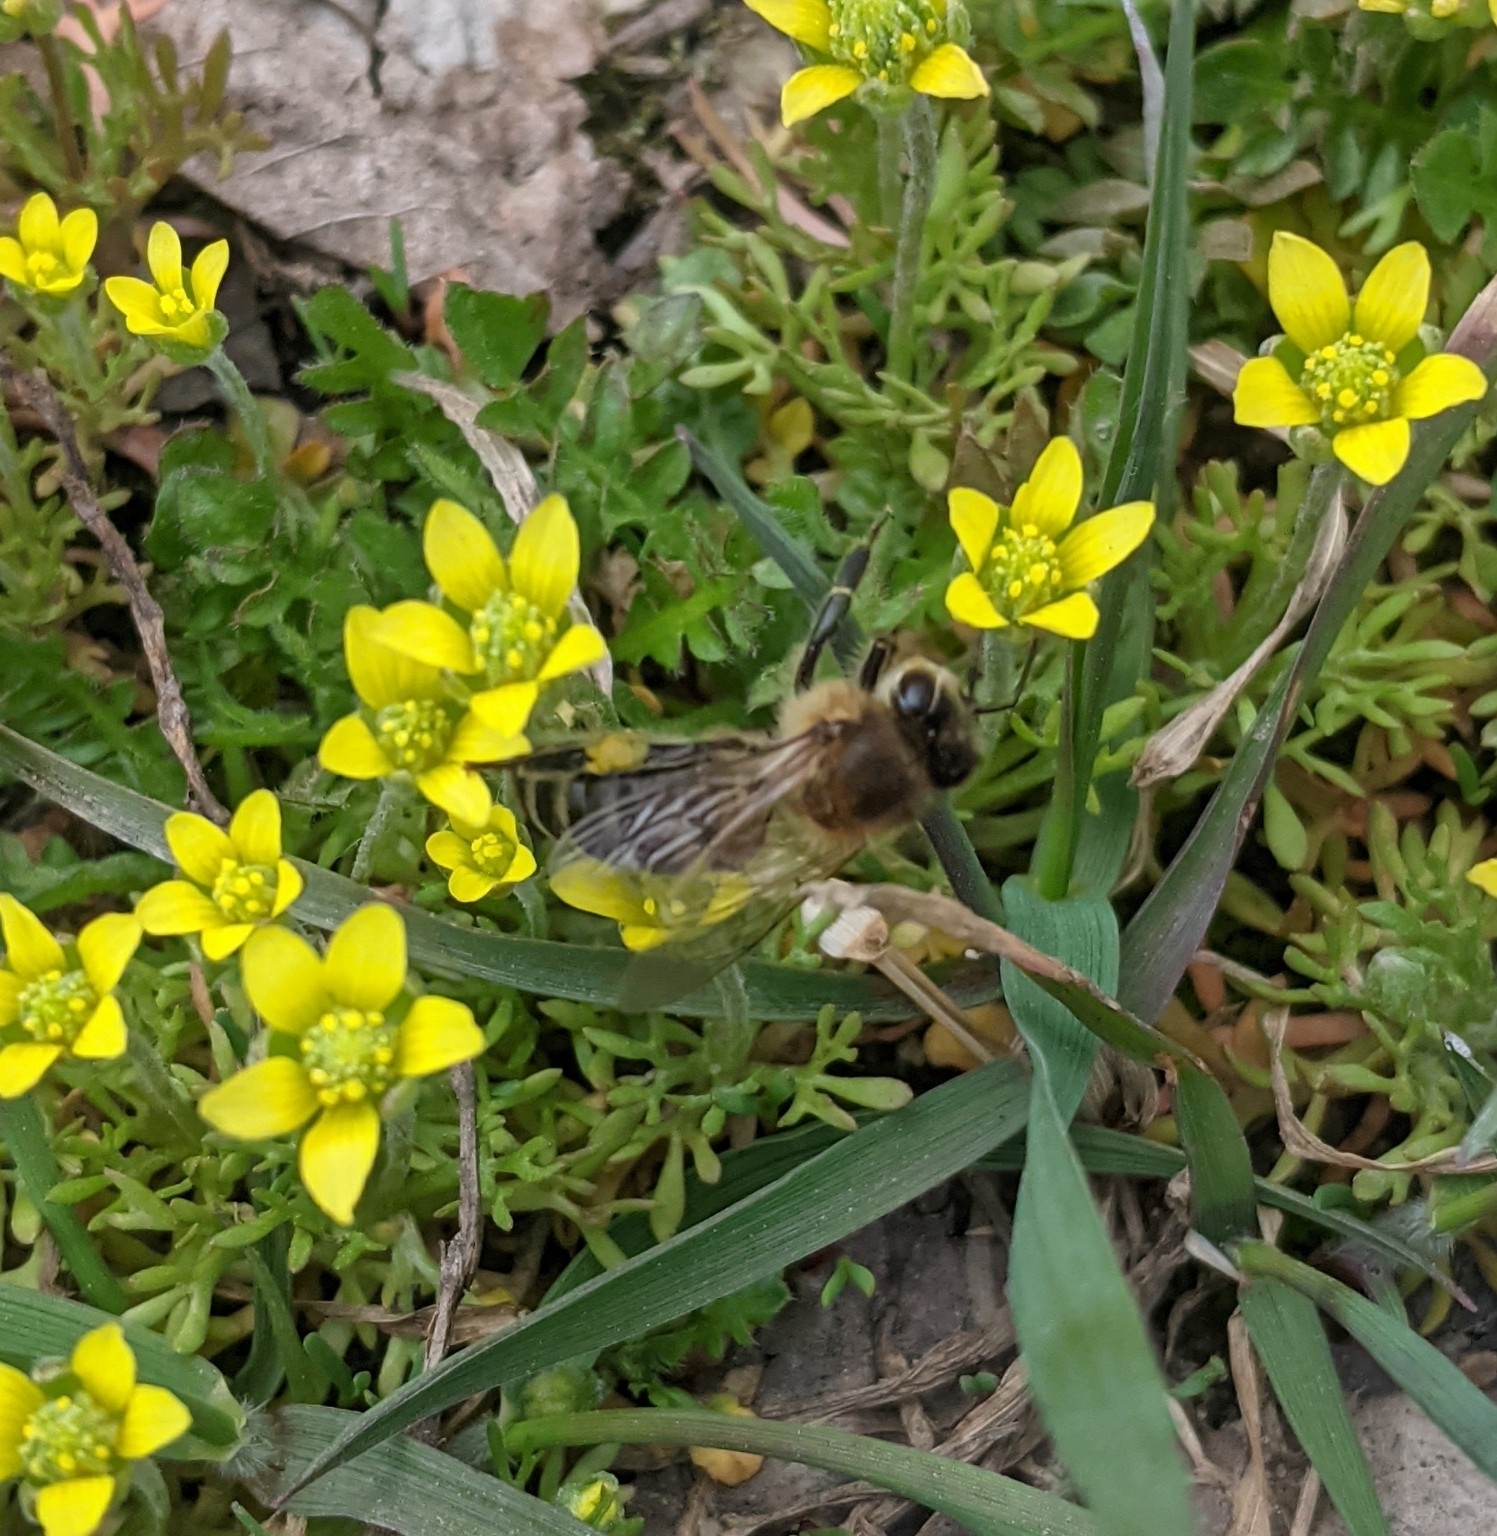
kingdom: Animalia
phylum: Arthropoda
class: Insecta
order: Hymenoptera
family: Apidae
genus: Apis
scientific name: Apis mellifera
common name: Honey bee
